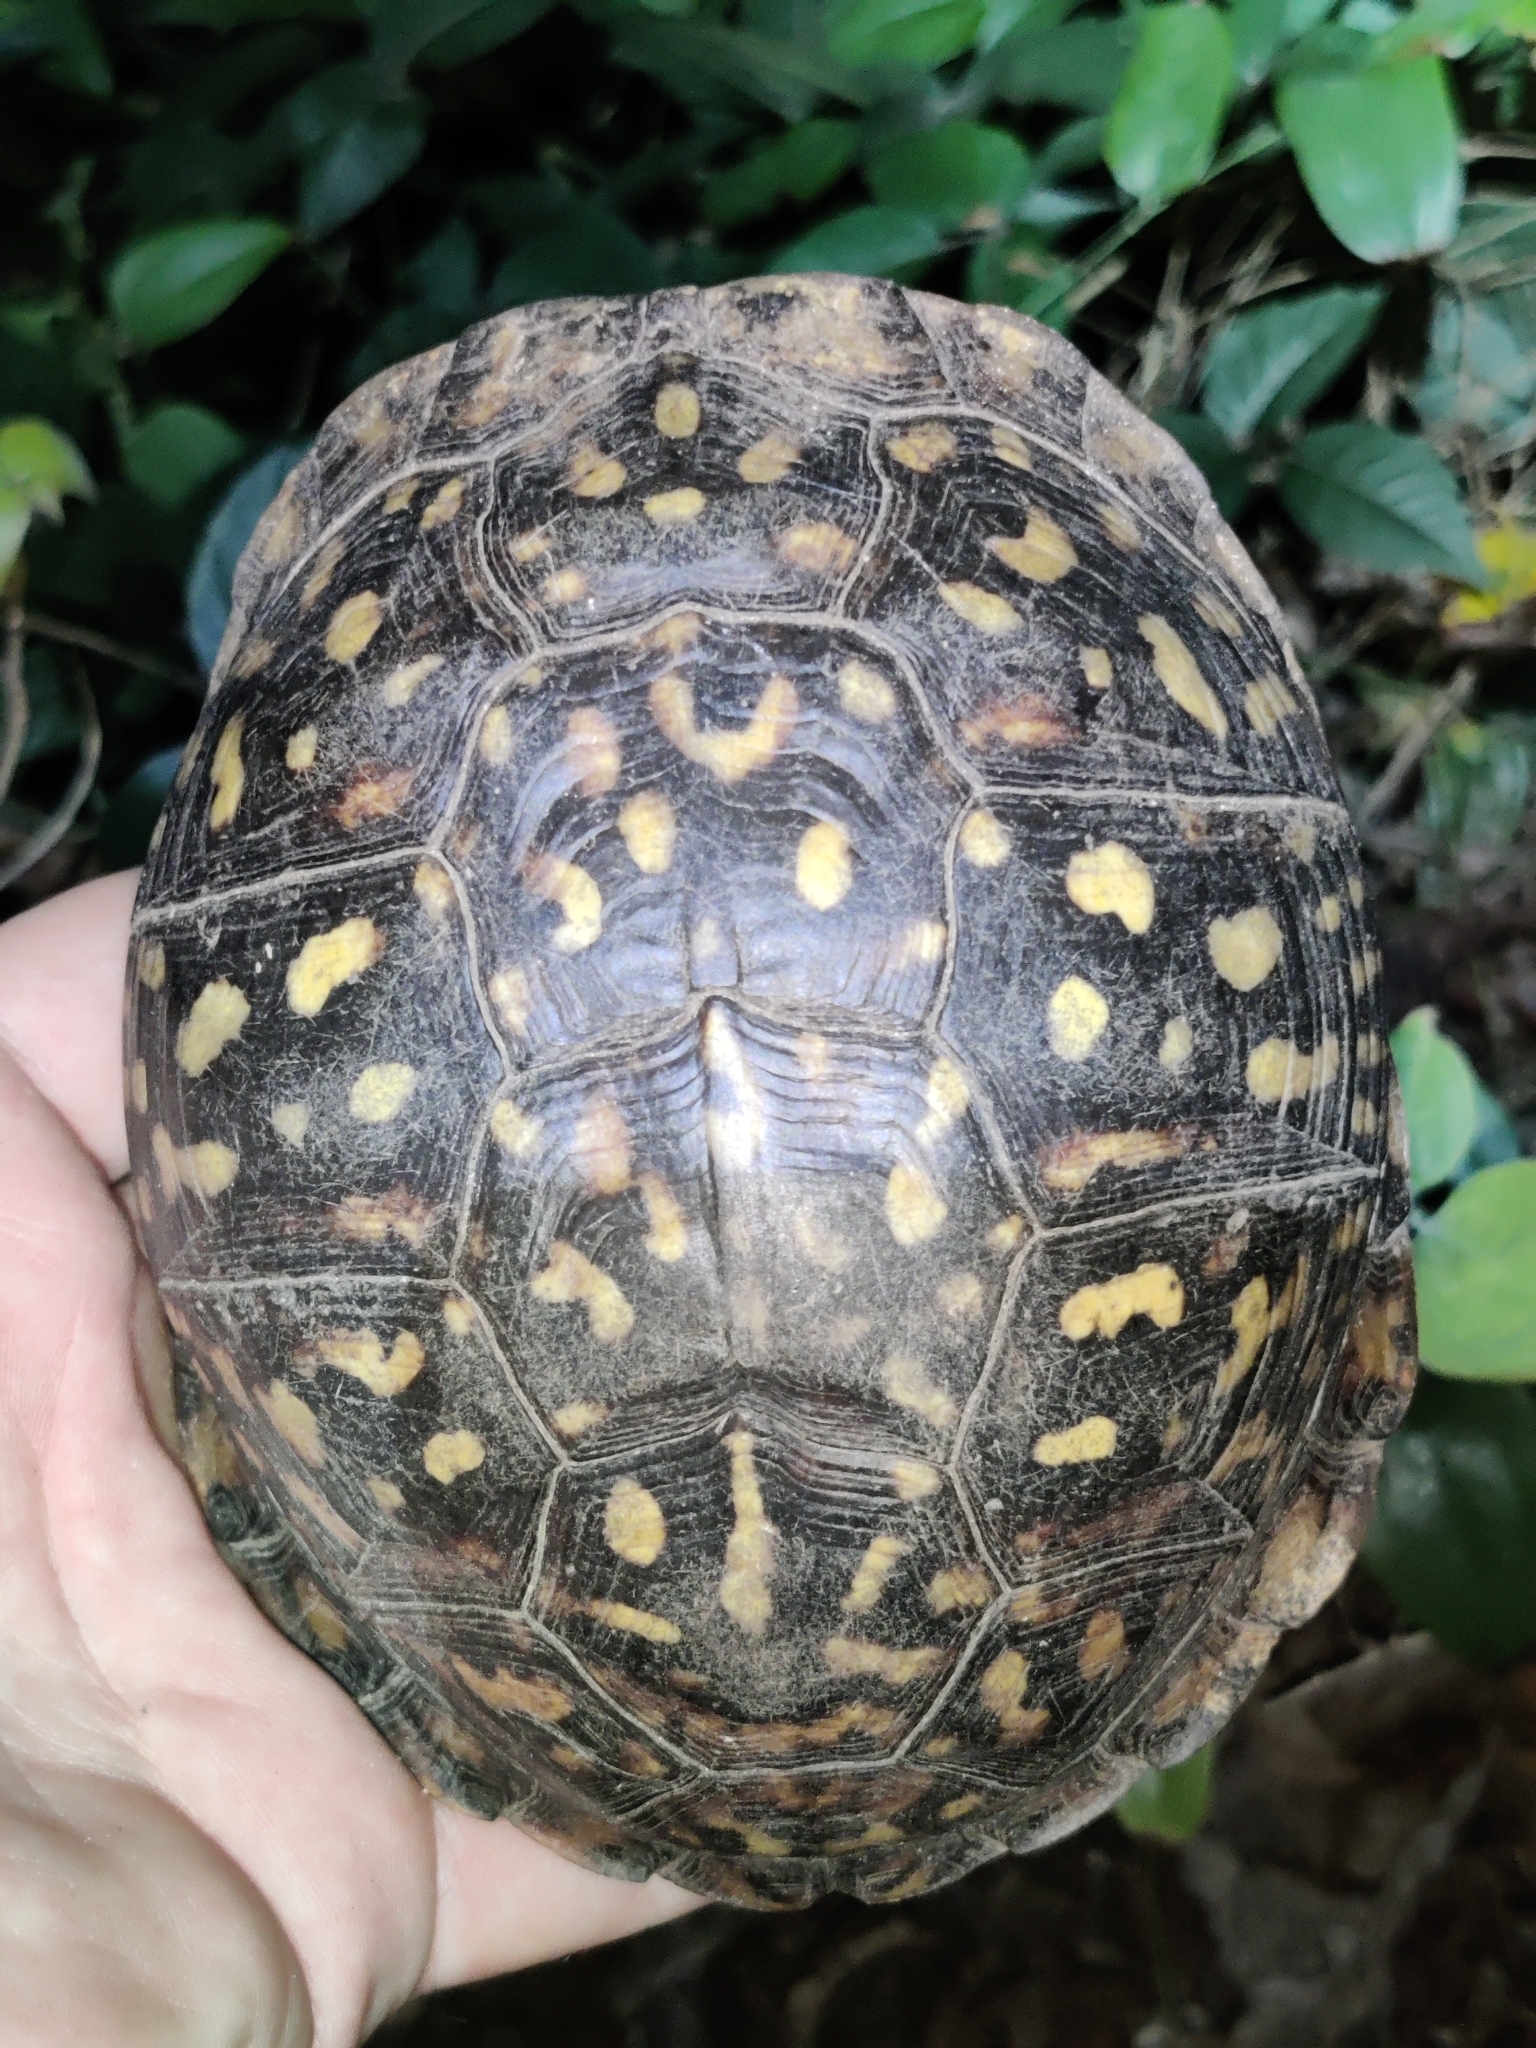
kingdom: Animalia
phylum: Chordata
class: Testudines
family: Emydidae
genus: Terrapene
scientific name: Terrapene carolina
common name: Common box turtle
